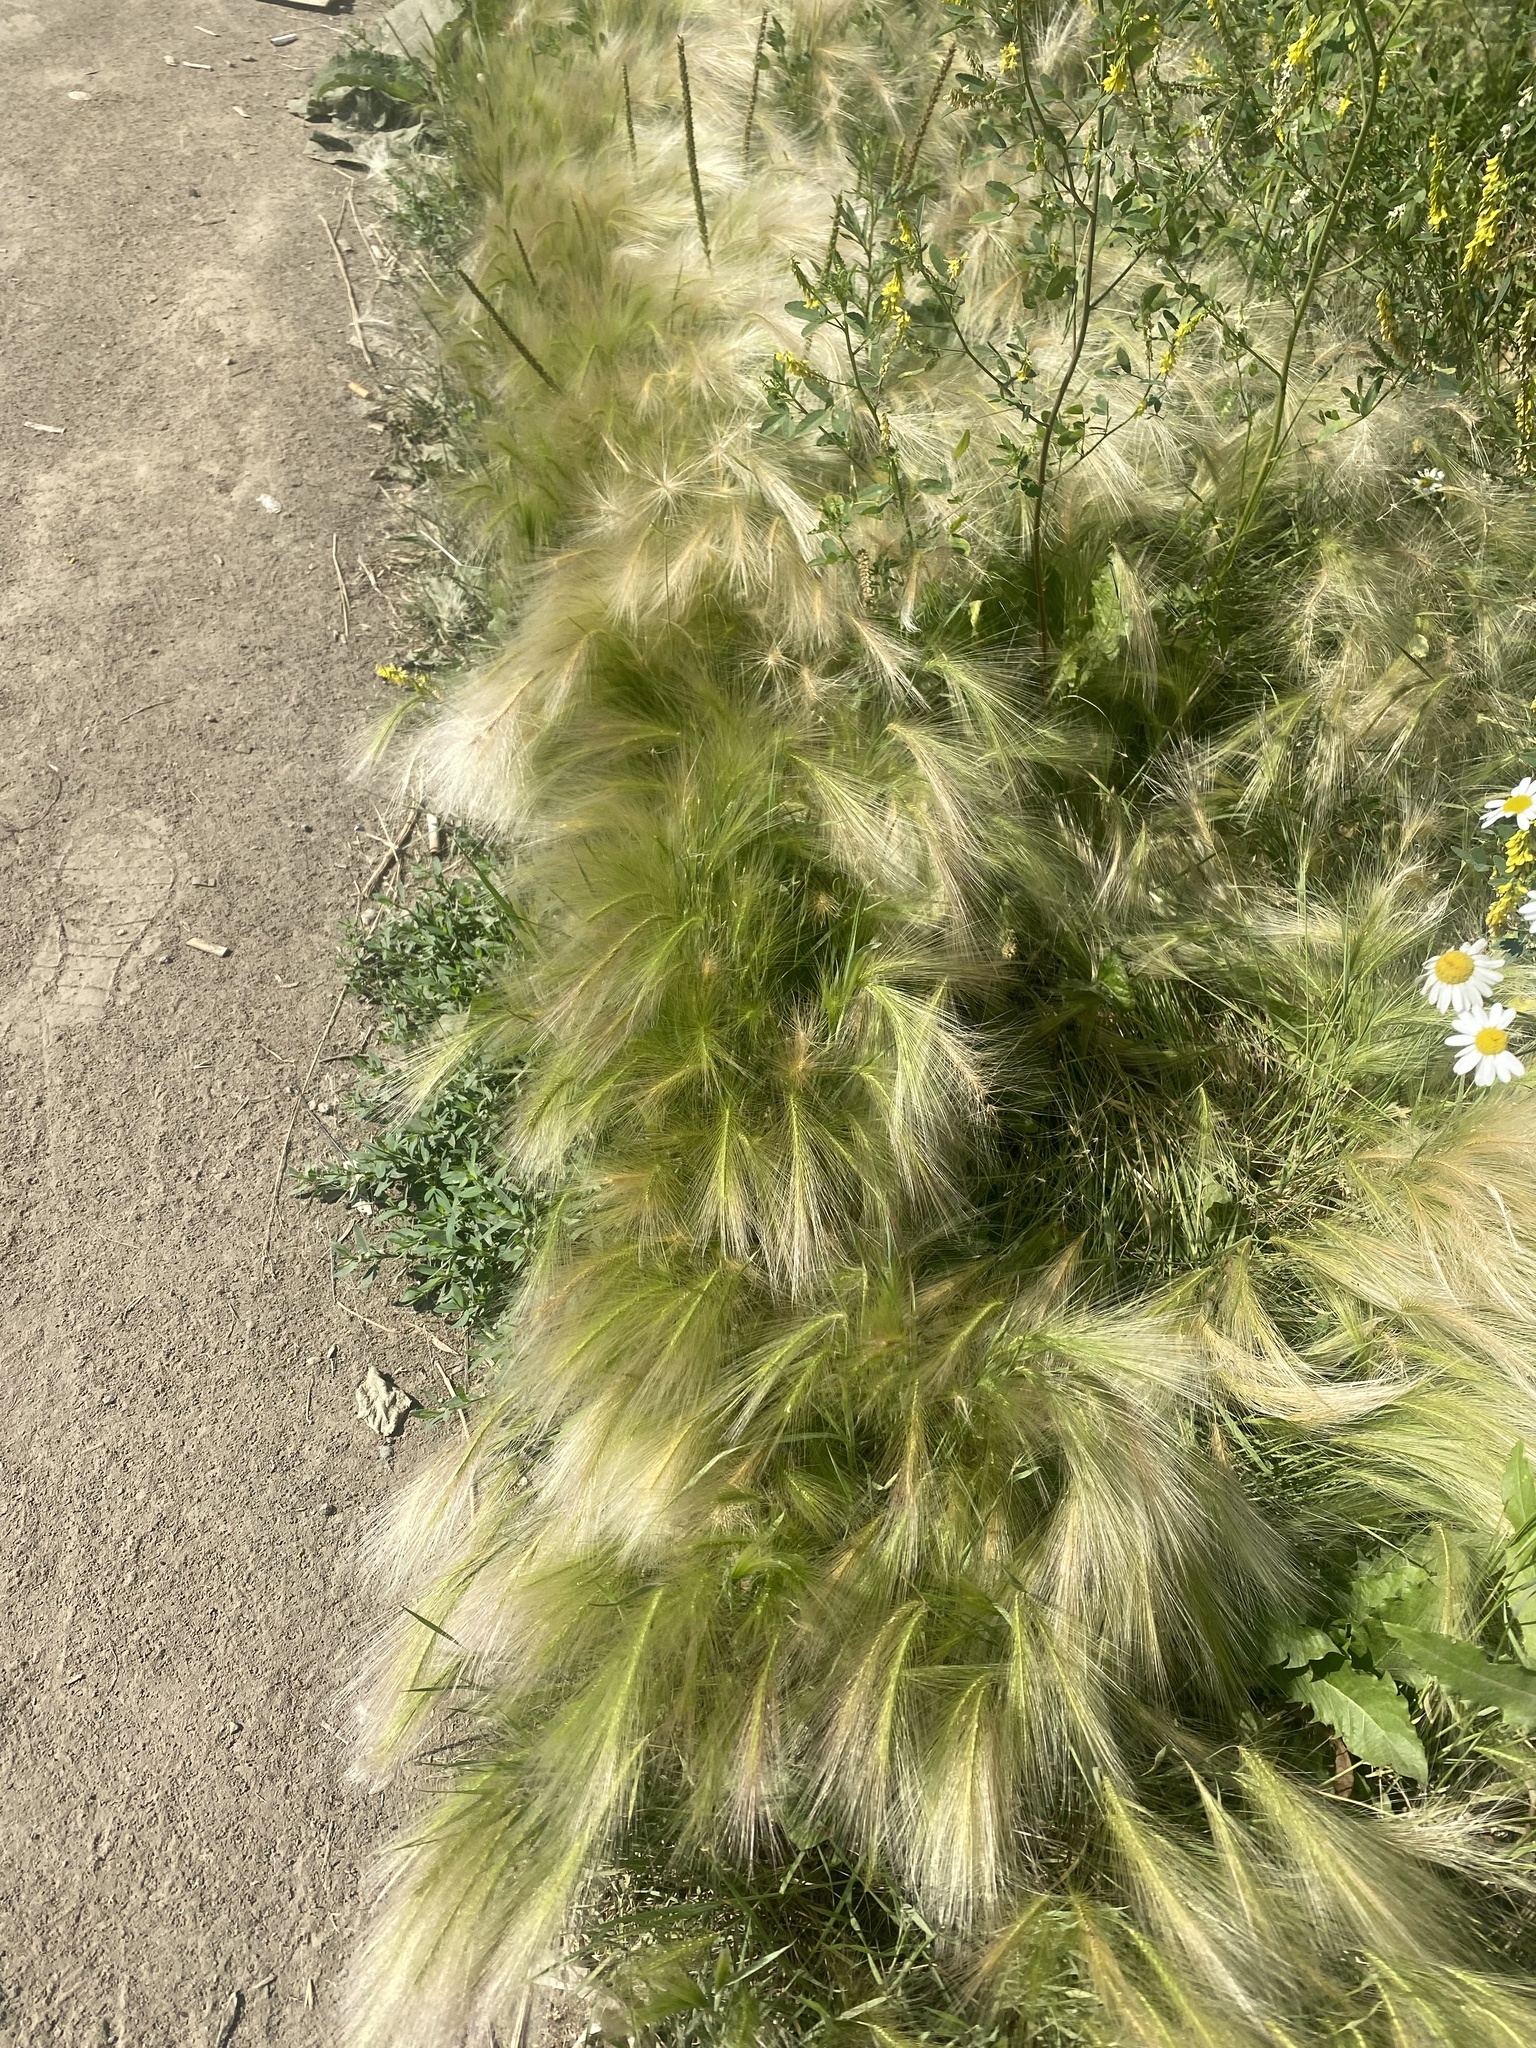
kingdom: Plantae
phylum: Tracheophyta
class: Liliopsida
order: Poales
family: Poaceae
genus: Hordeum
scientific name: Hordeum jubatum
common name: Foxtail barley
